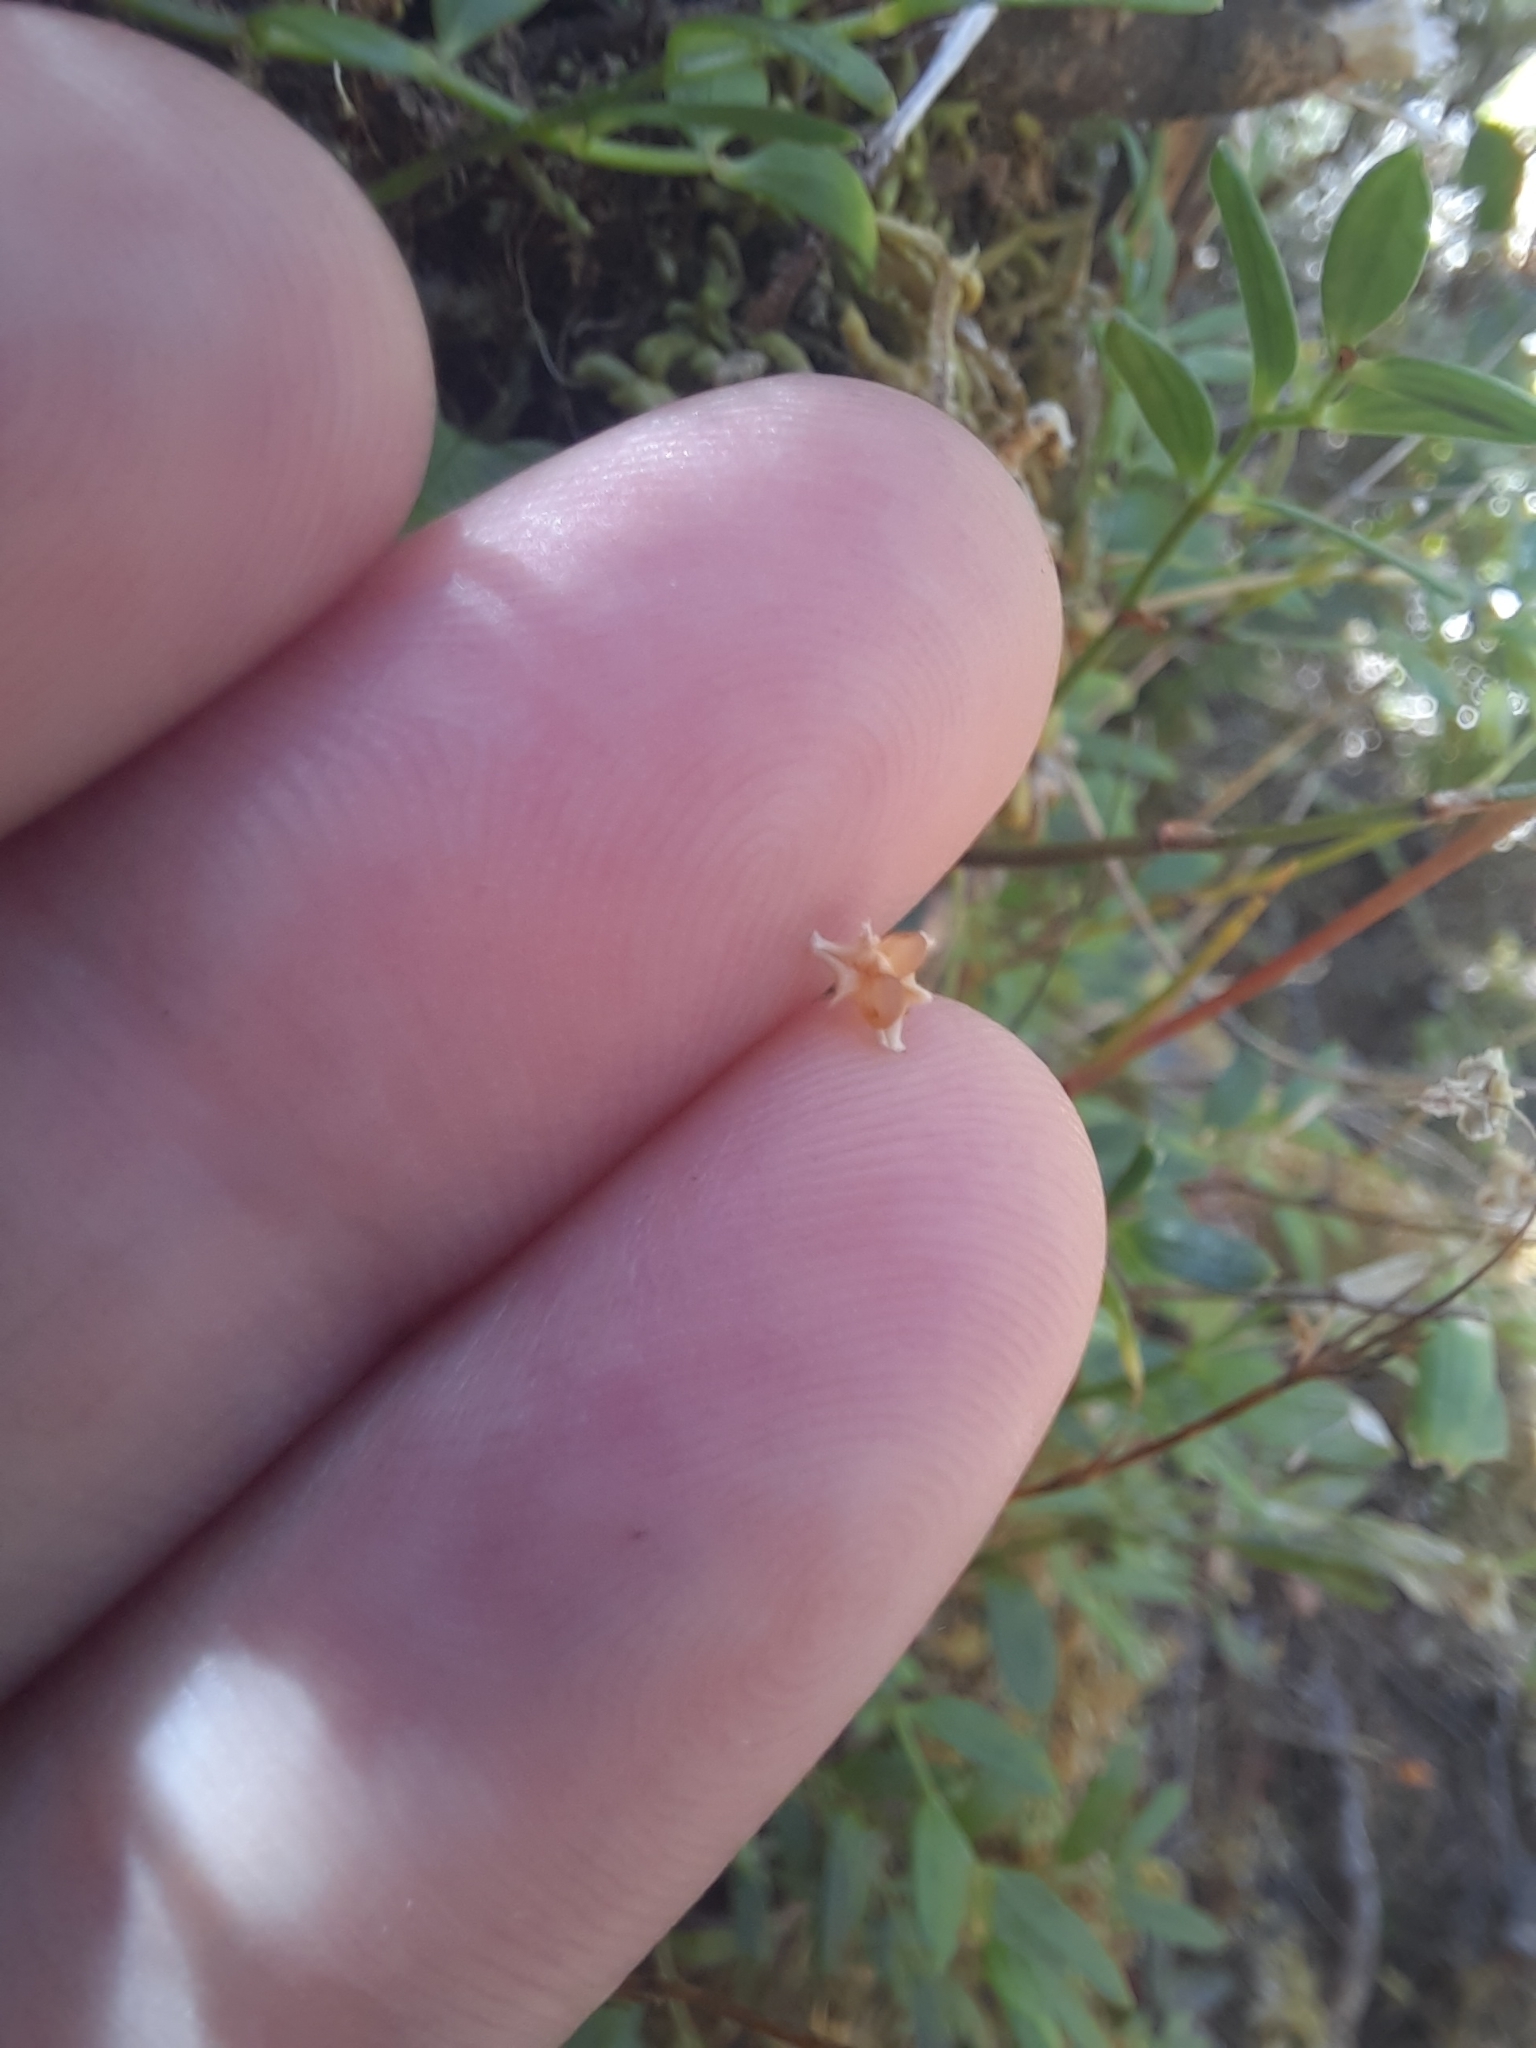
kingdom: Plantae
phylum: Tracheophyta
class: Liliopsida
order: Asparagales
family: Iridaceae
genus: Libertia
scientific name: Libertia micrantha
